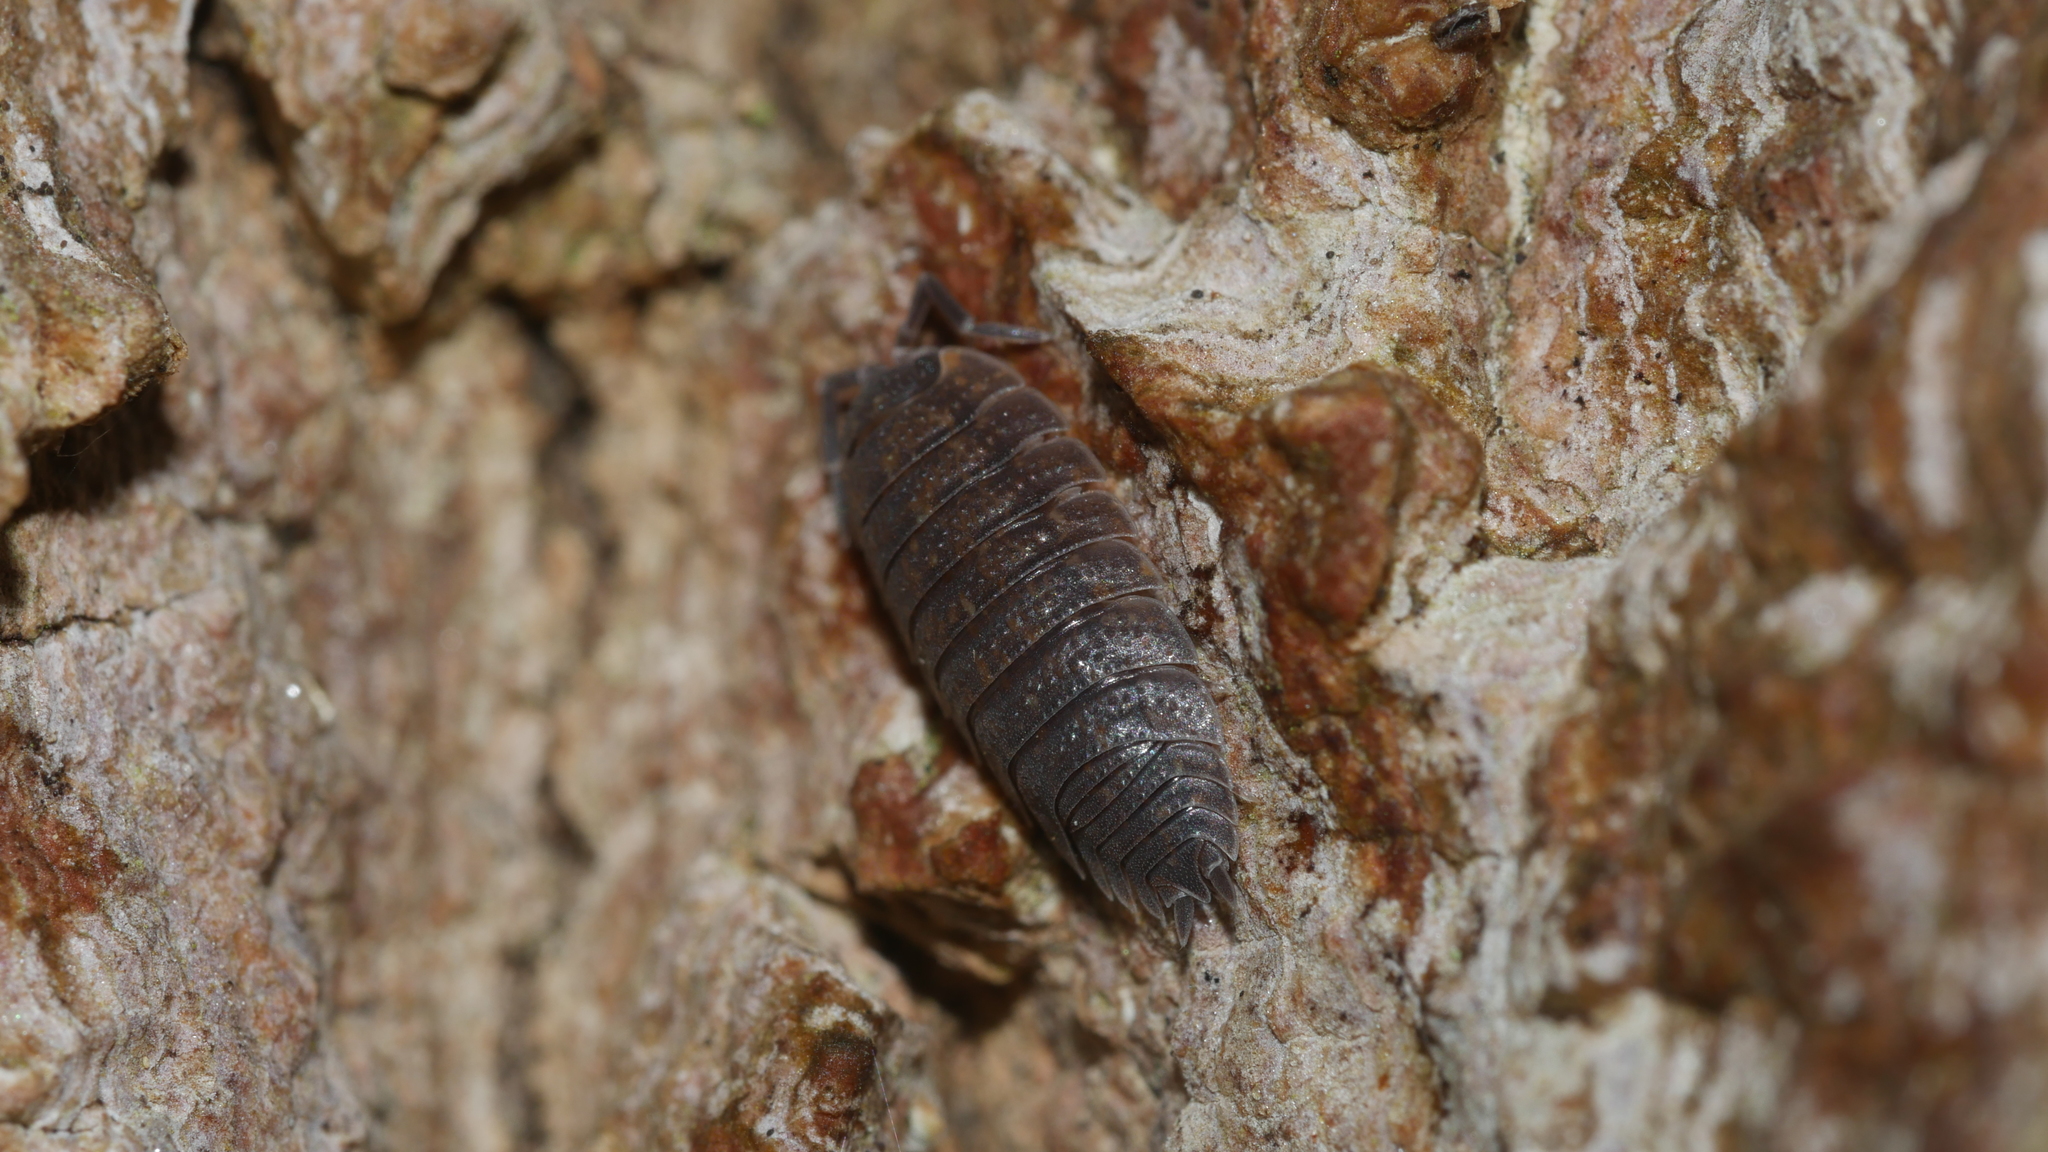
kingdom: Animalia
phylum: Arthropoda
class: Malacostraca
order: Isopoda
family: Porcellionidae
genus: Porcellio
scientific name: Porcellio scaber
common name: Common rough woodlouse
